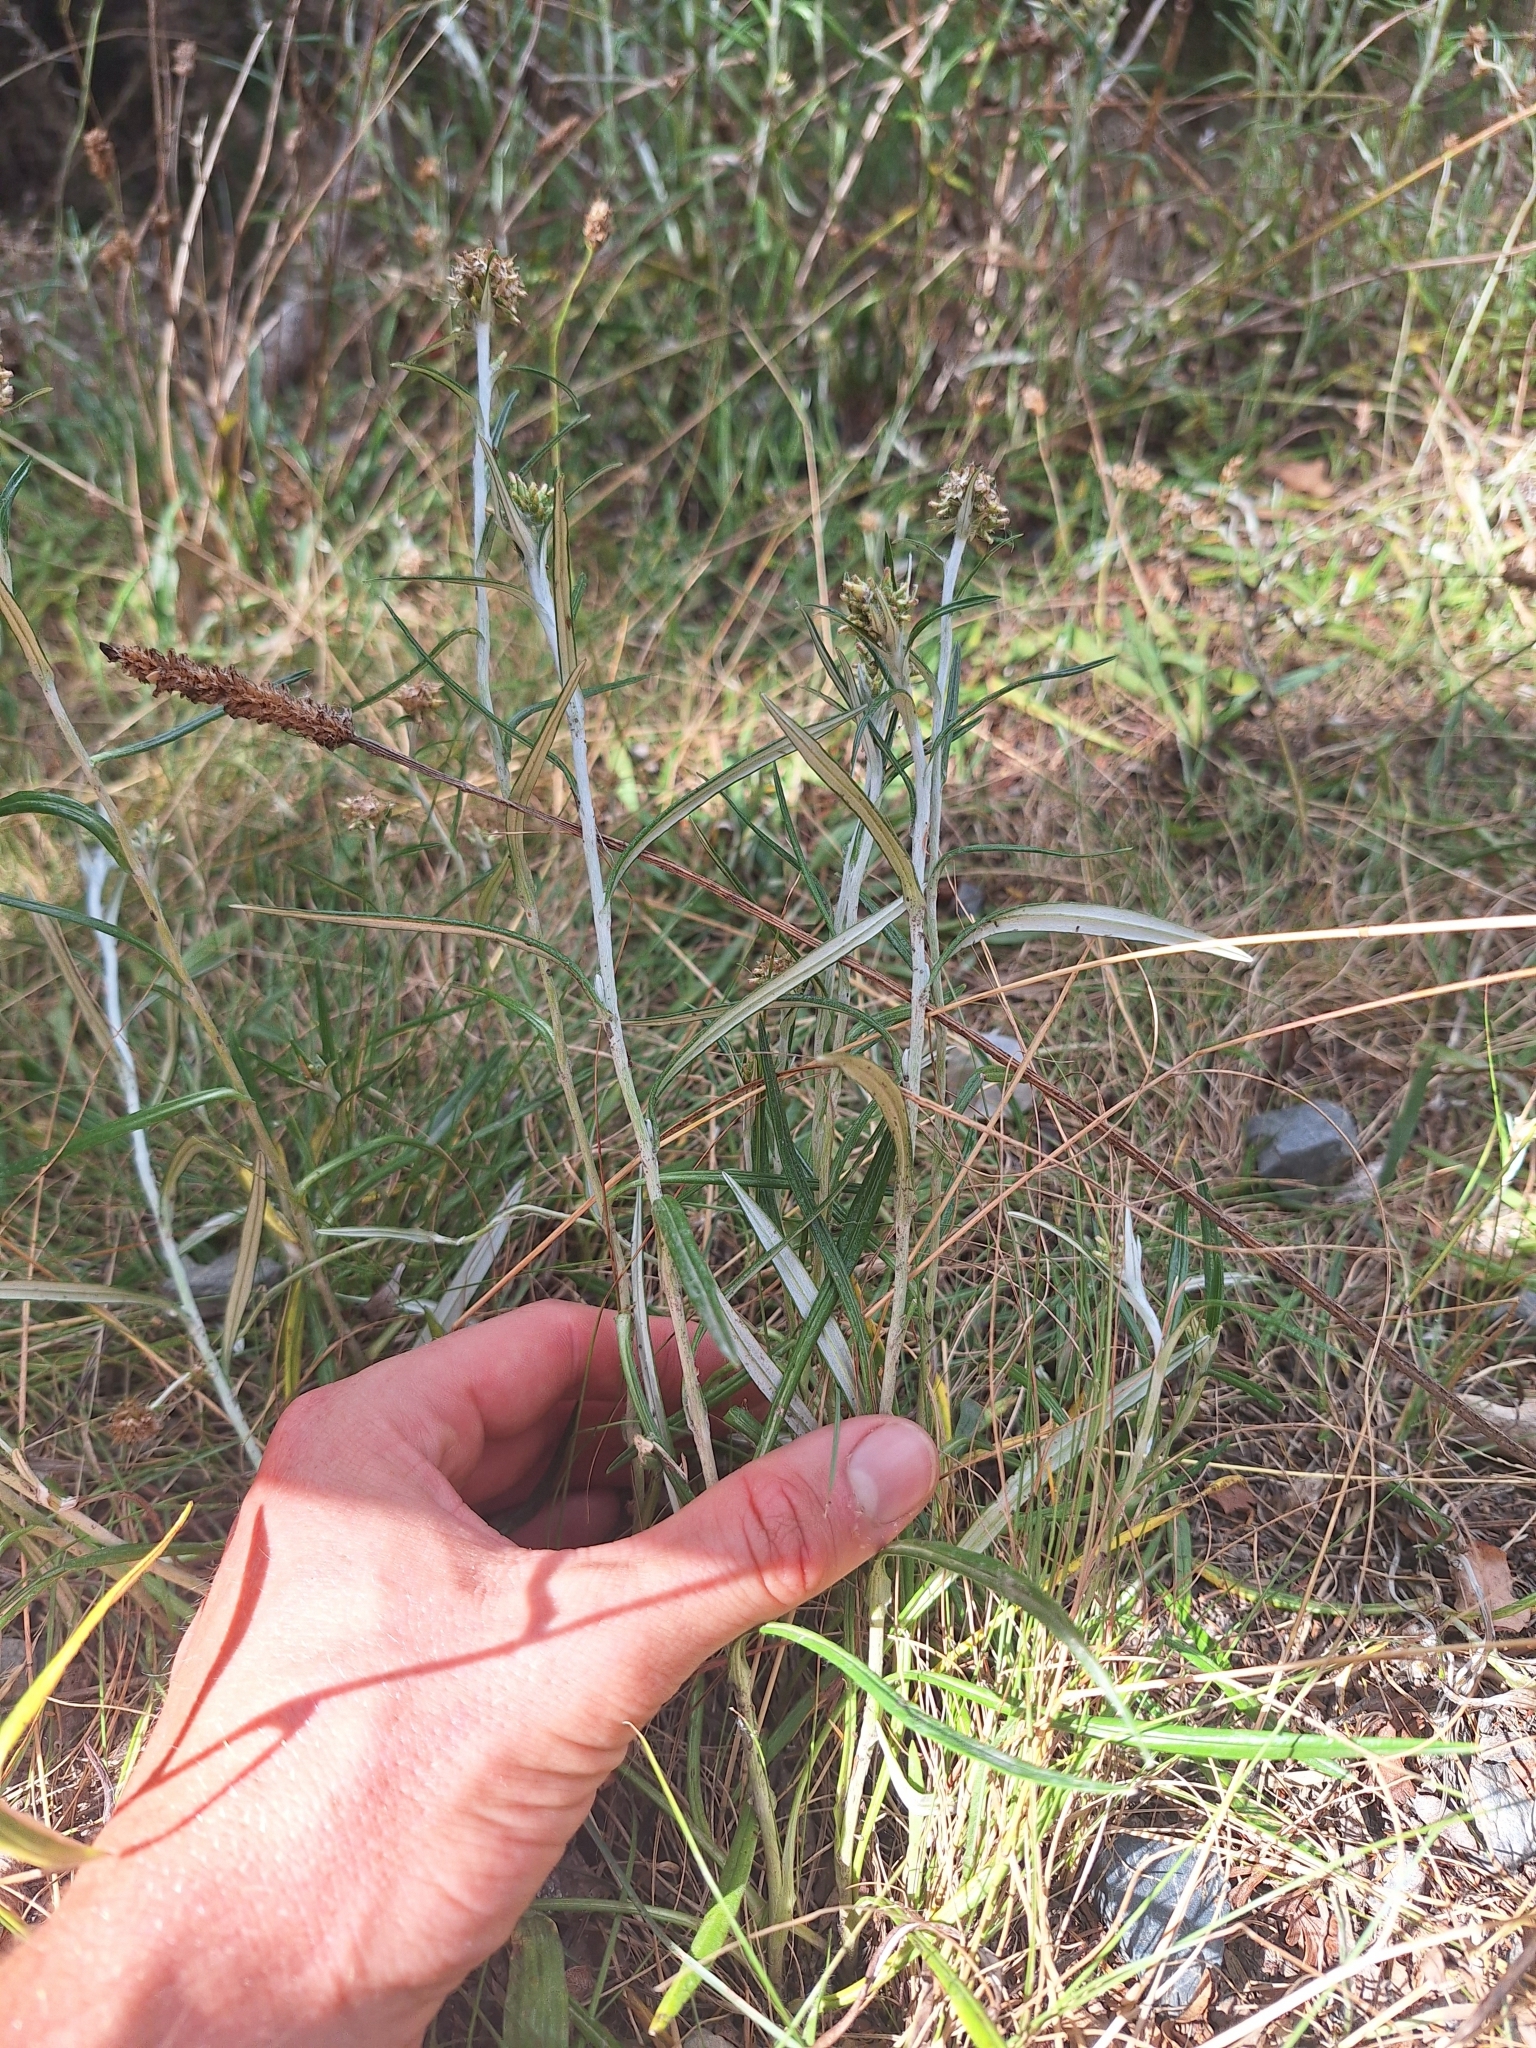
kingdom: Plantae
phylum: Tracheophyta
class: Magnoliopsida
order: Asterales
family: Asteraceae
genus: Euchiton
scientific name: Euchiton japonicus
